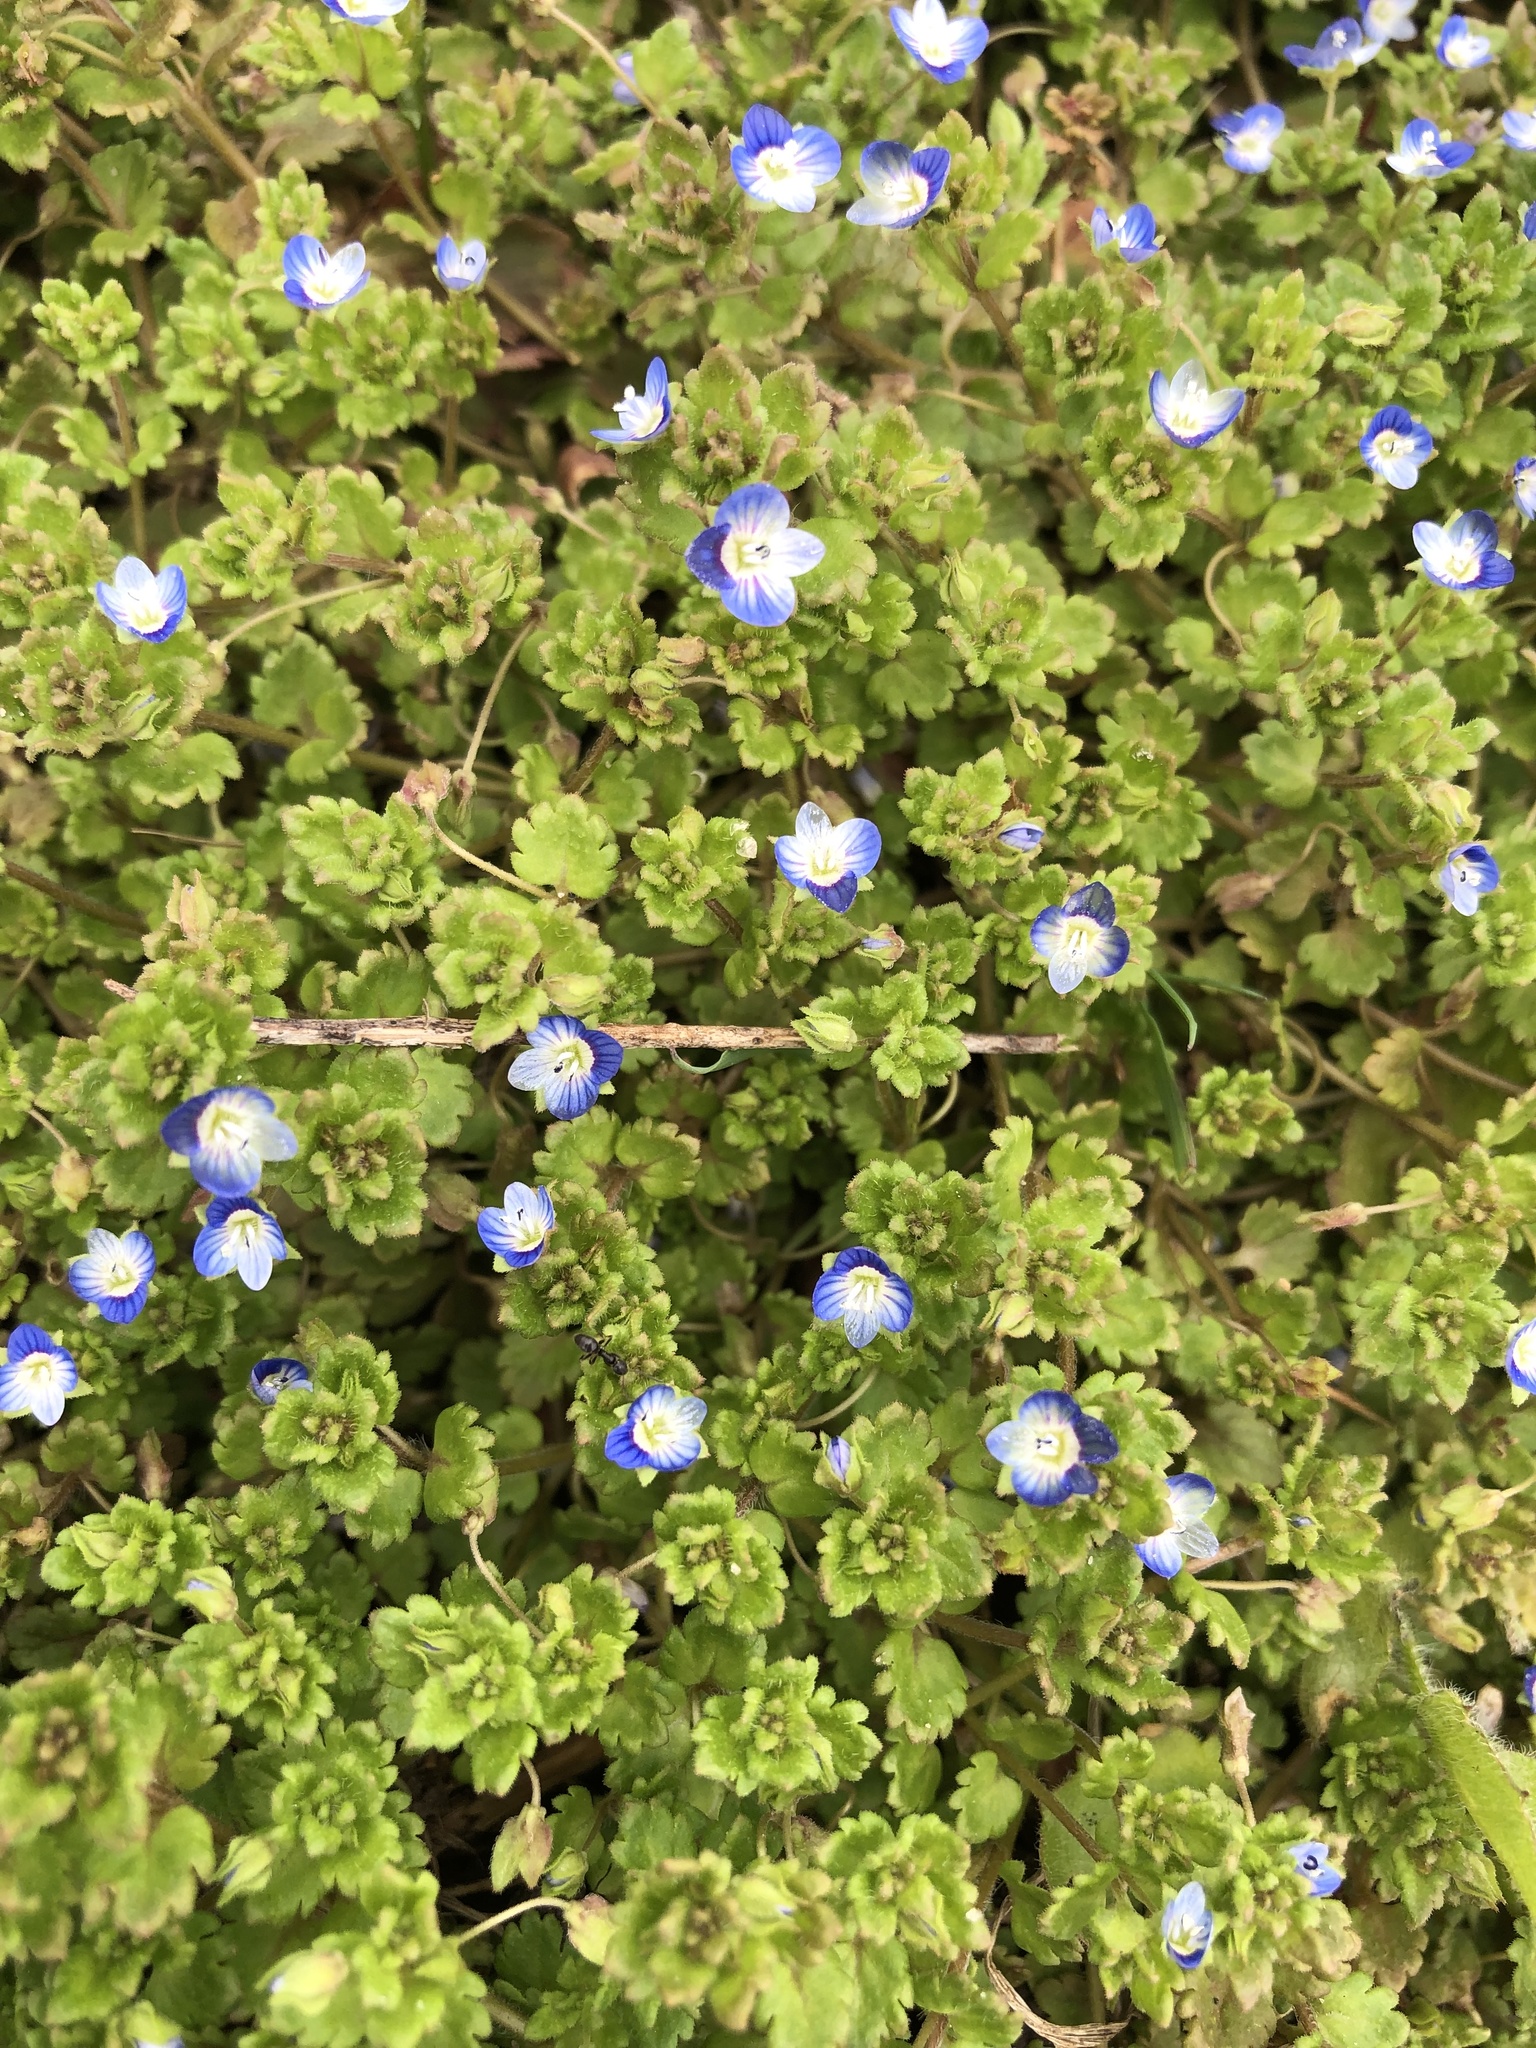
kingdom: Plantae
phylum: Tracheophyta
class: Magnoliopsida
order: Lamiales
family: Plantaginaceae
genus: Veronica
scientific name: Veronica polita
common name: Grey field-speedwell
